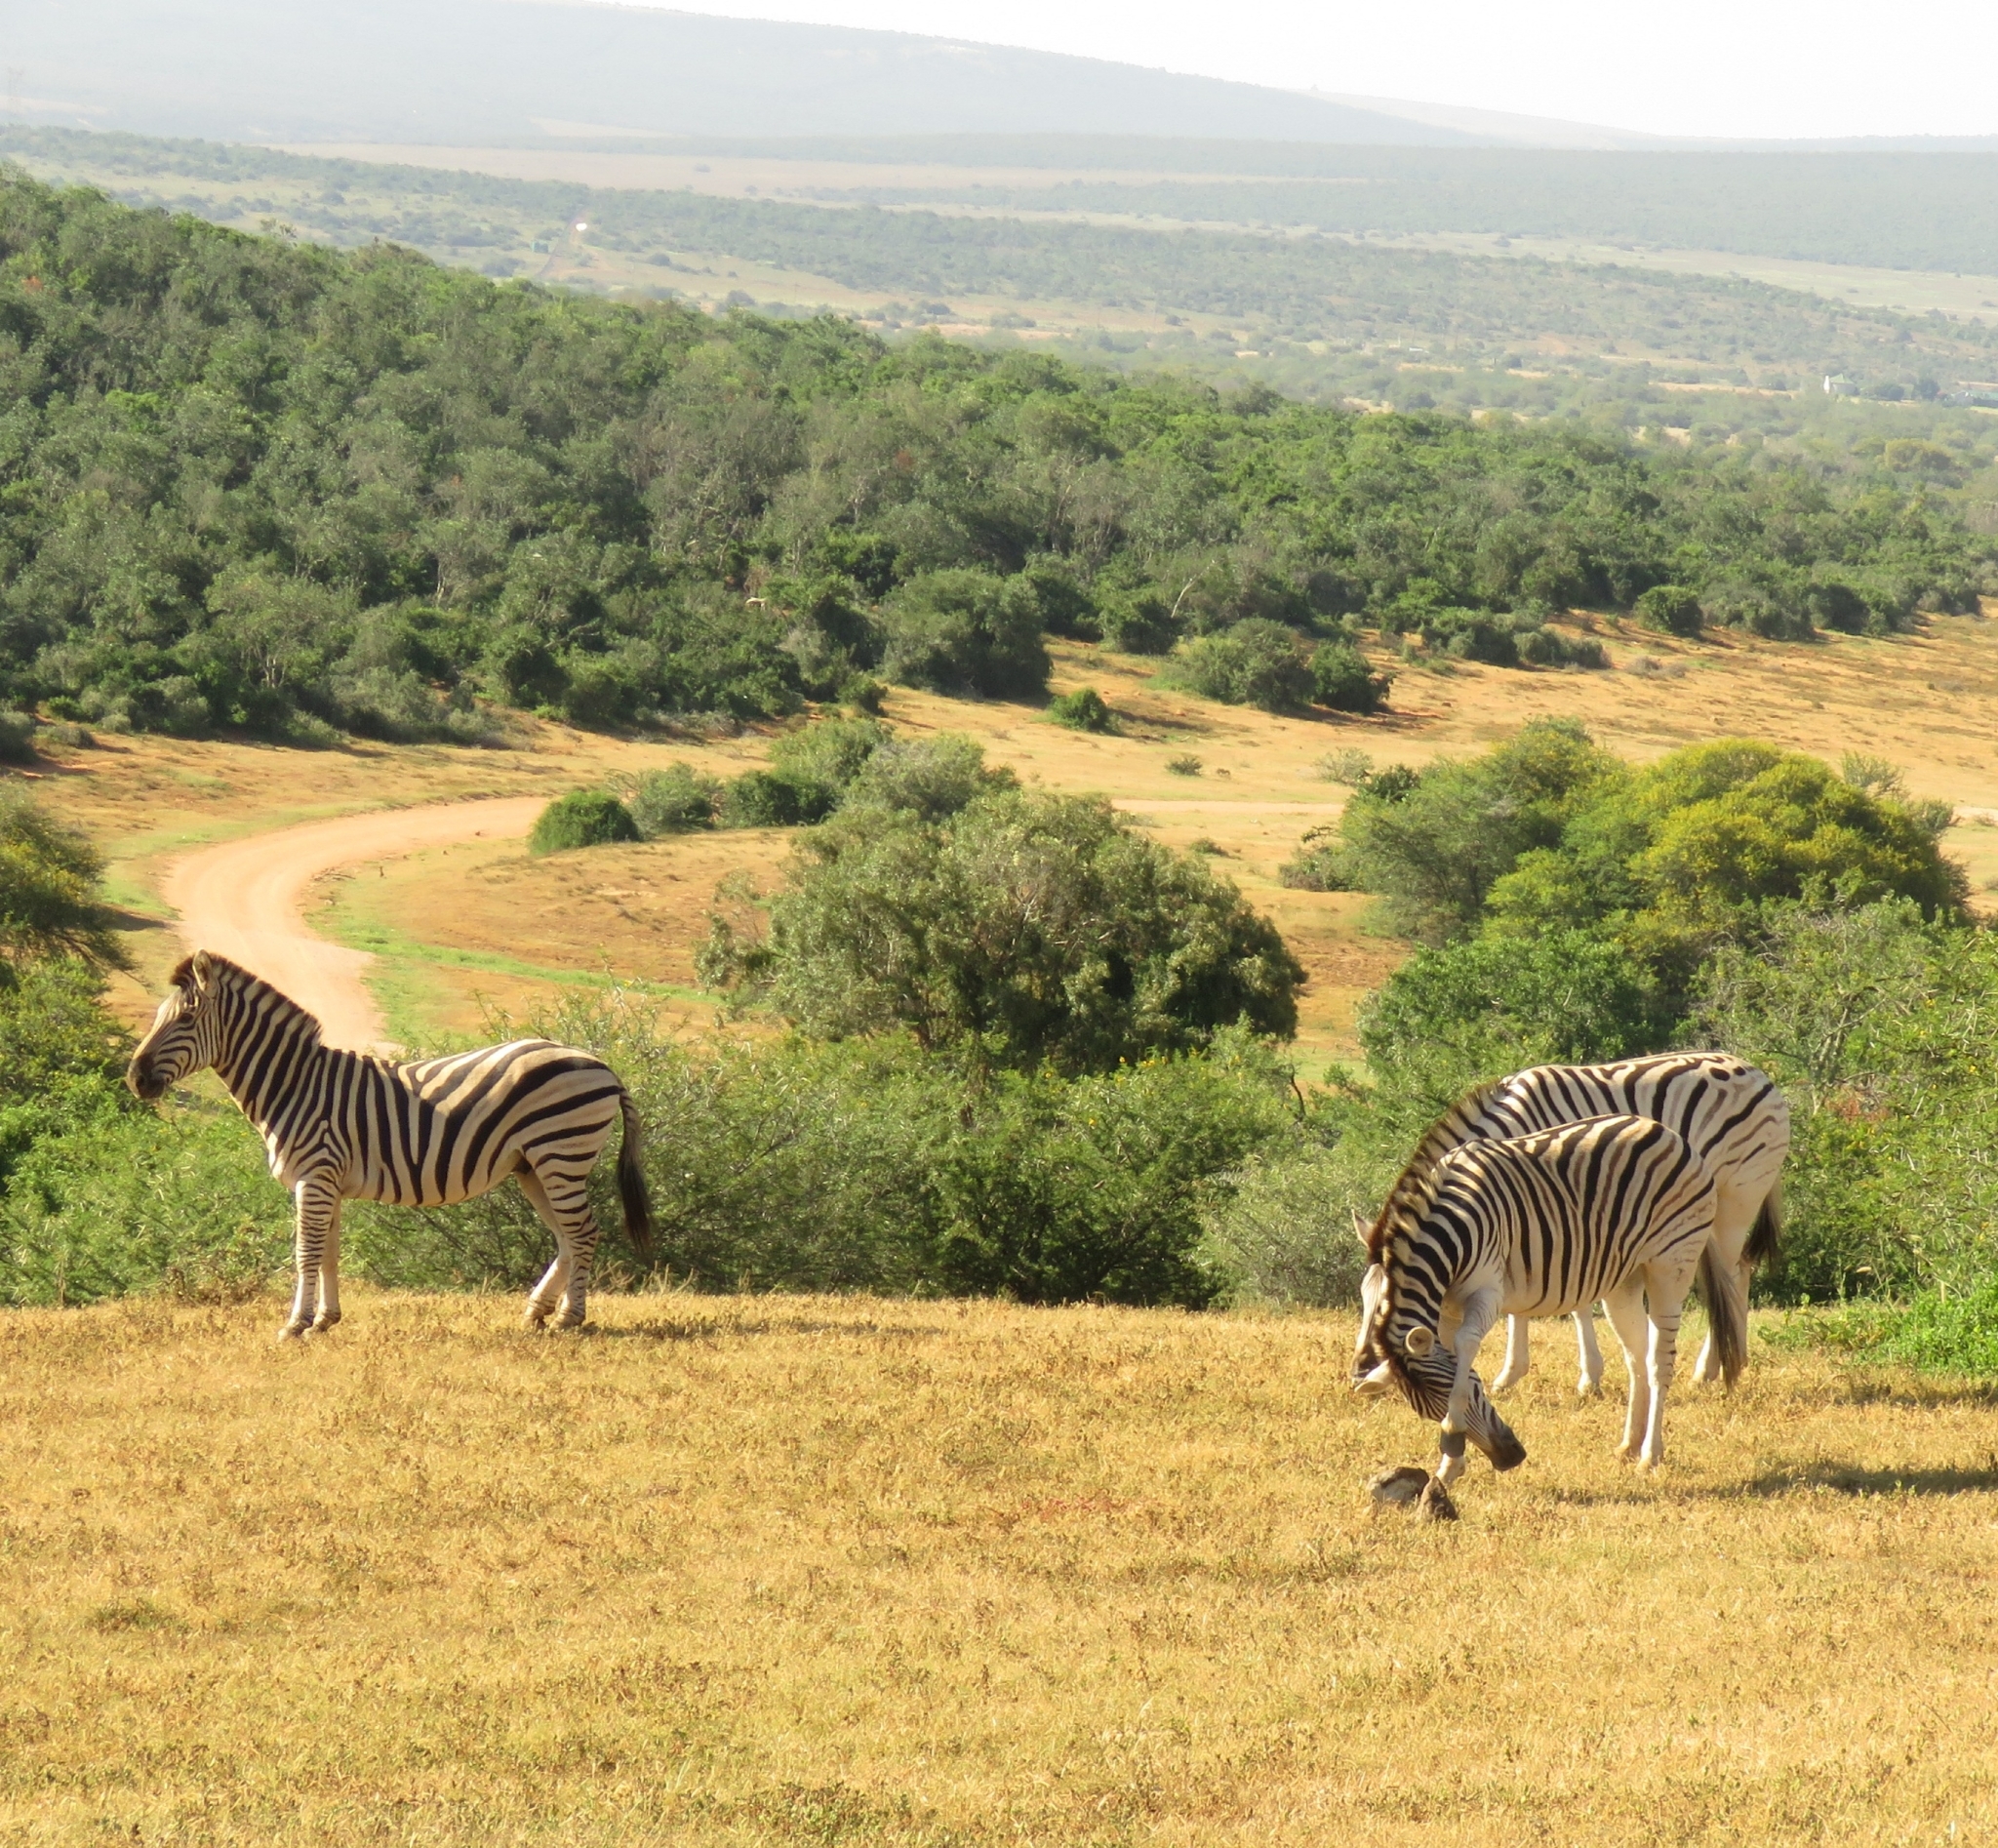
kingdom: Animalia
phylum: Chordata
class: Mammalia
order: Perissodactyla
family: Equidae
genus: Equus
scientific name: Equus quagga
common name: Plains zebra
